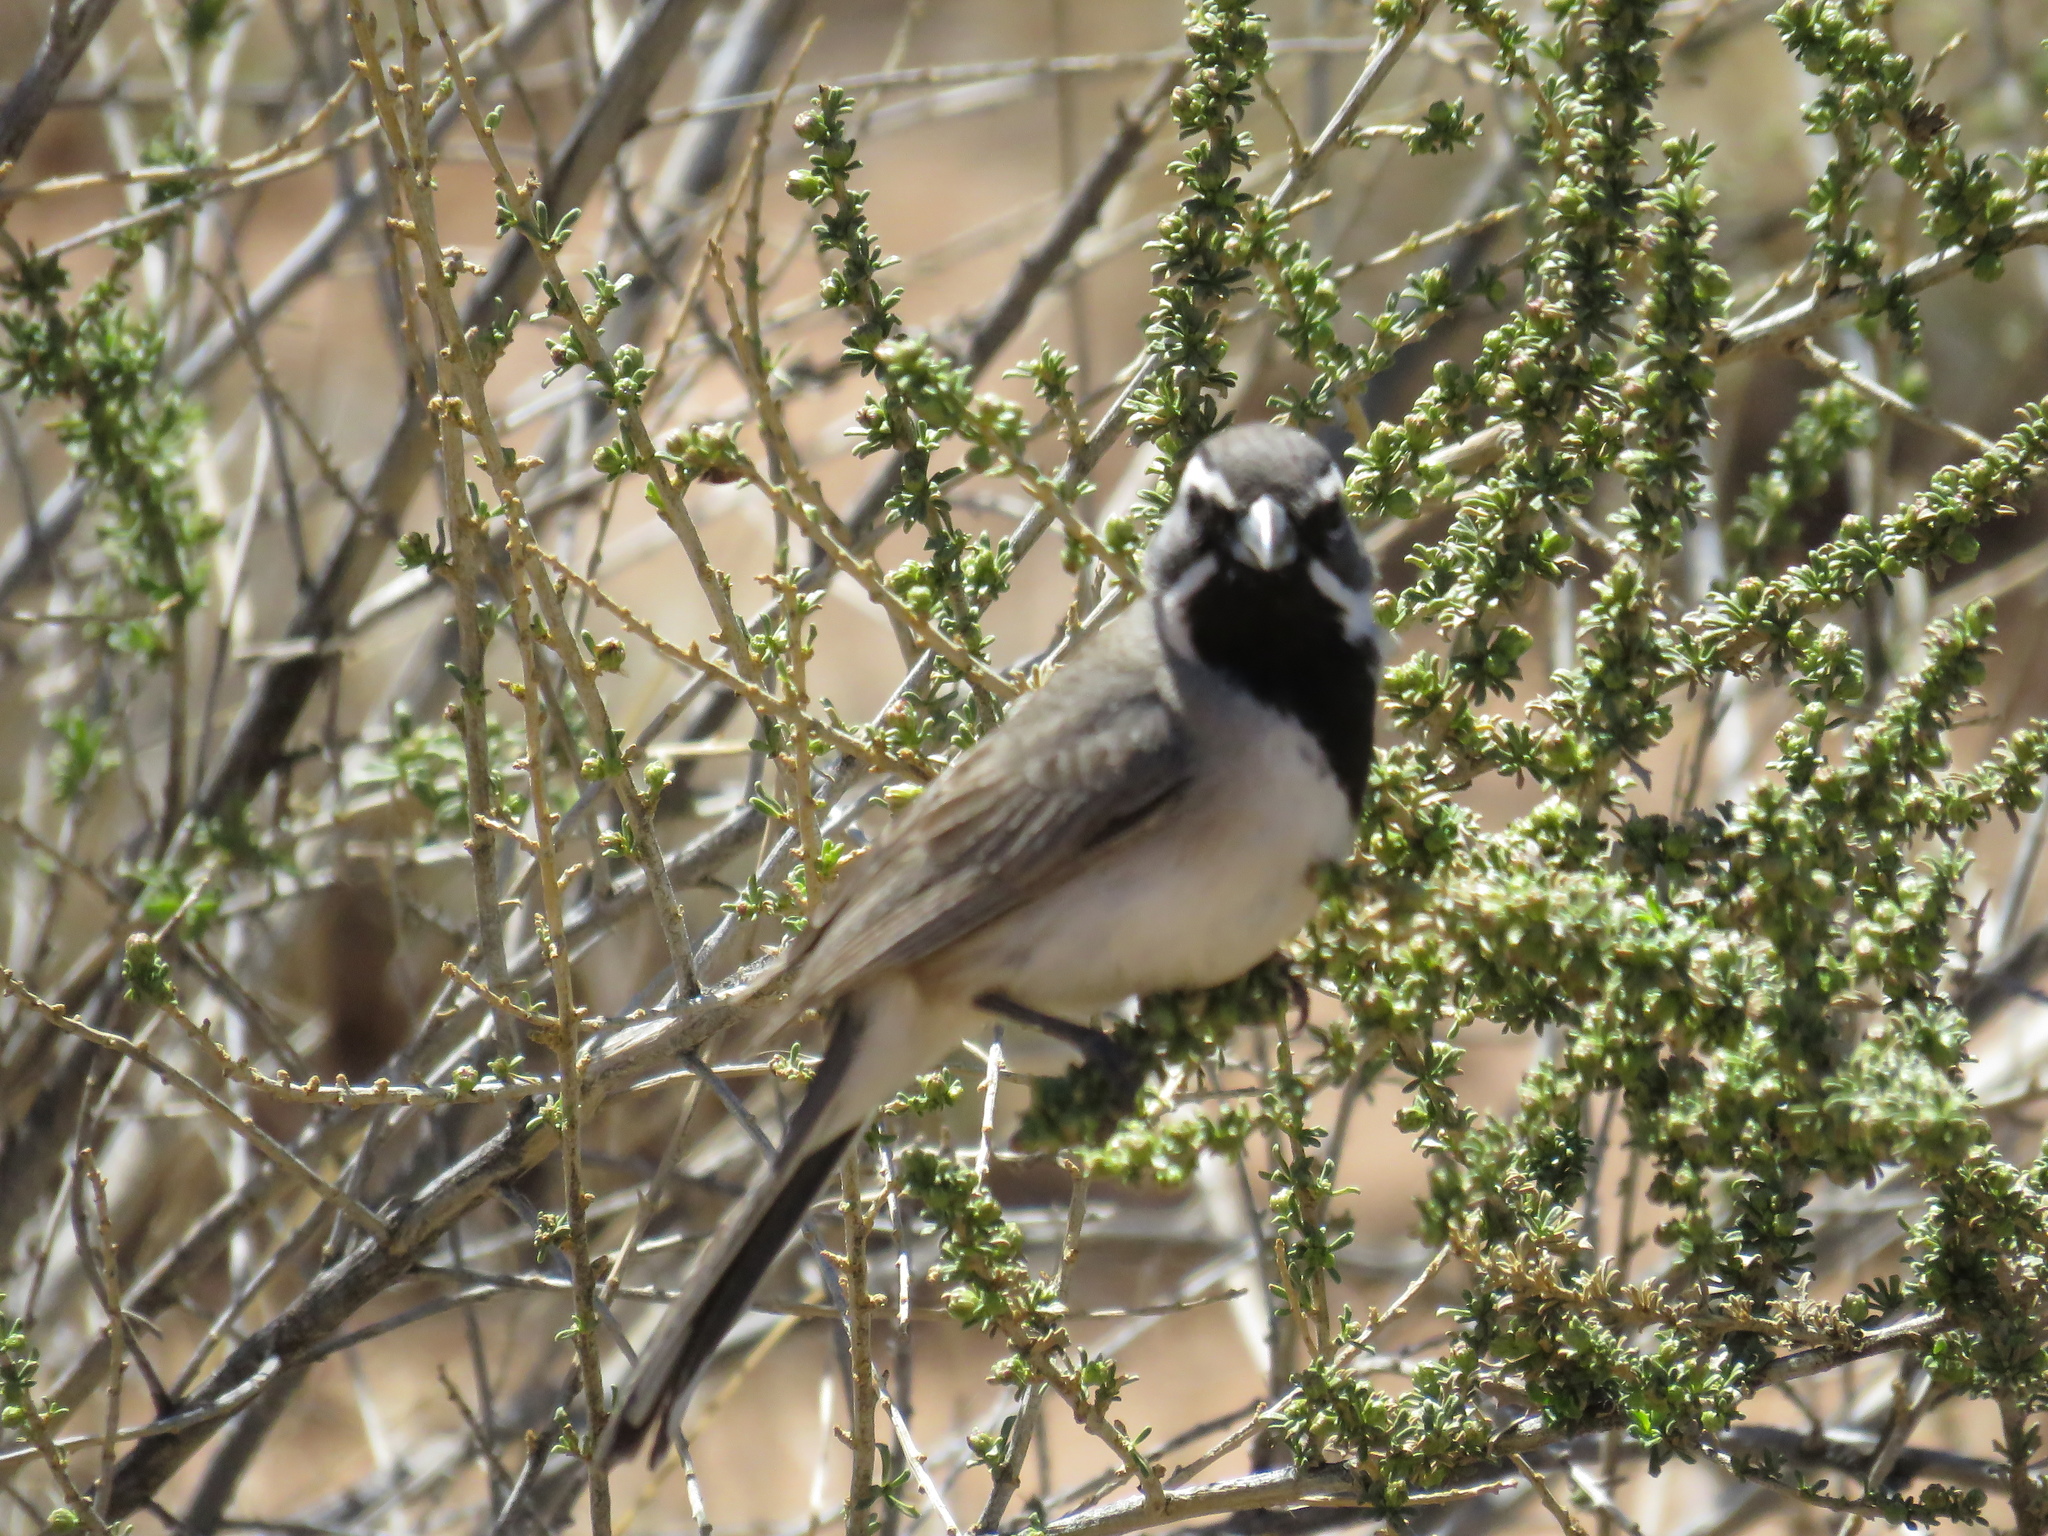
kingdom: Animalia
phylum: Chordata
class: Aves
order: Passeriformes
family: Passerellidae
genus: Amphispiza
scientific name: Amphispiza bilineata
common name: Black-throated sparrow
